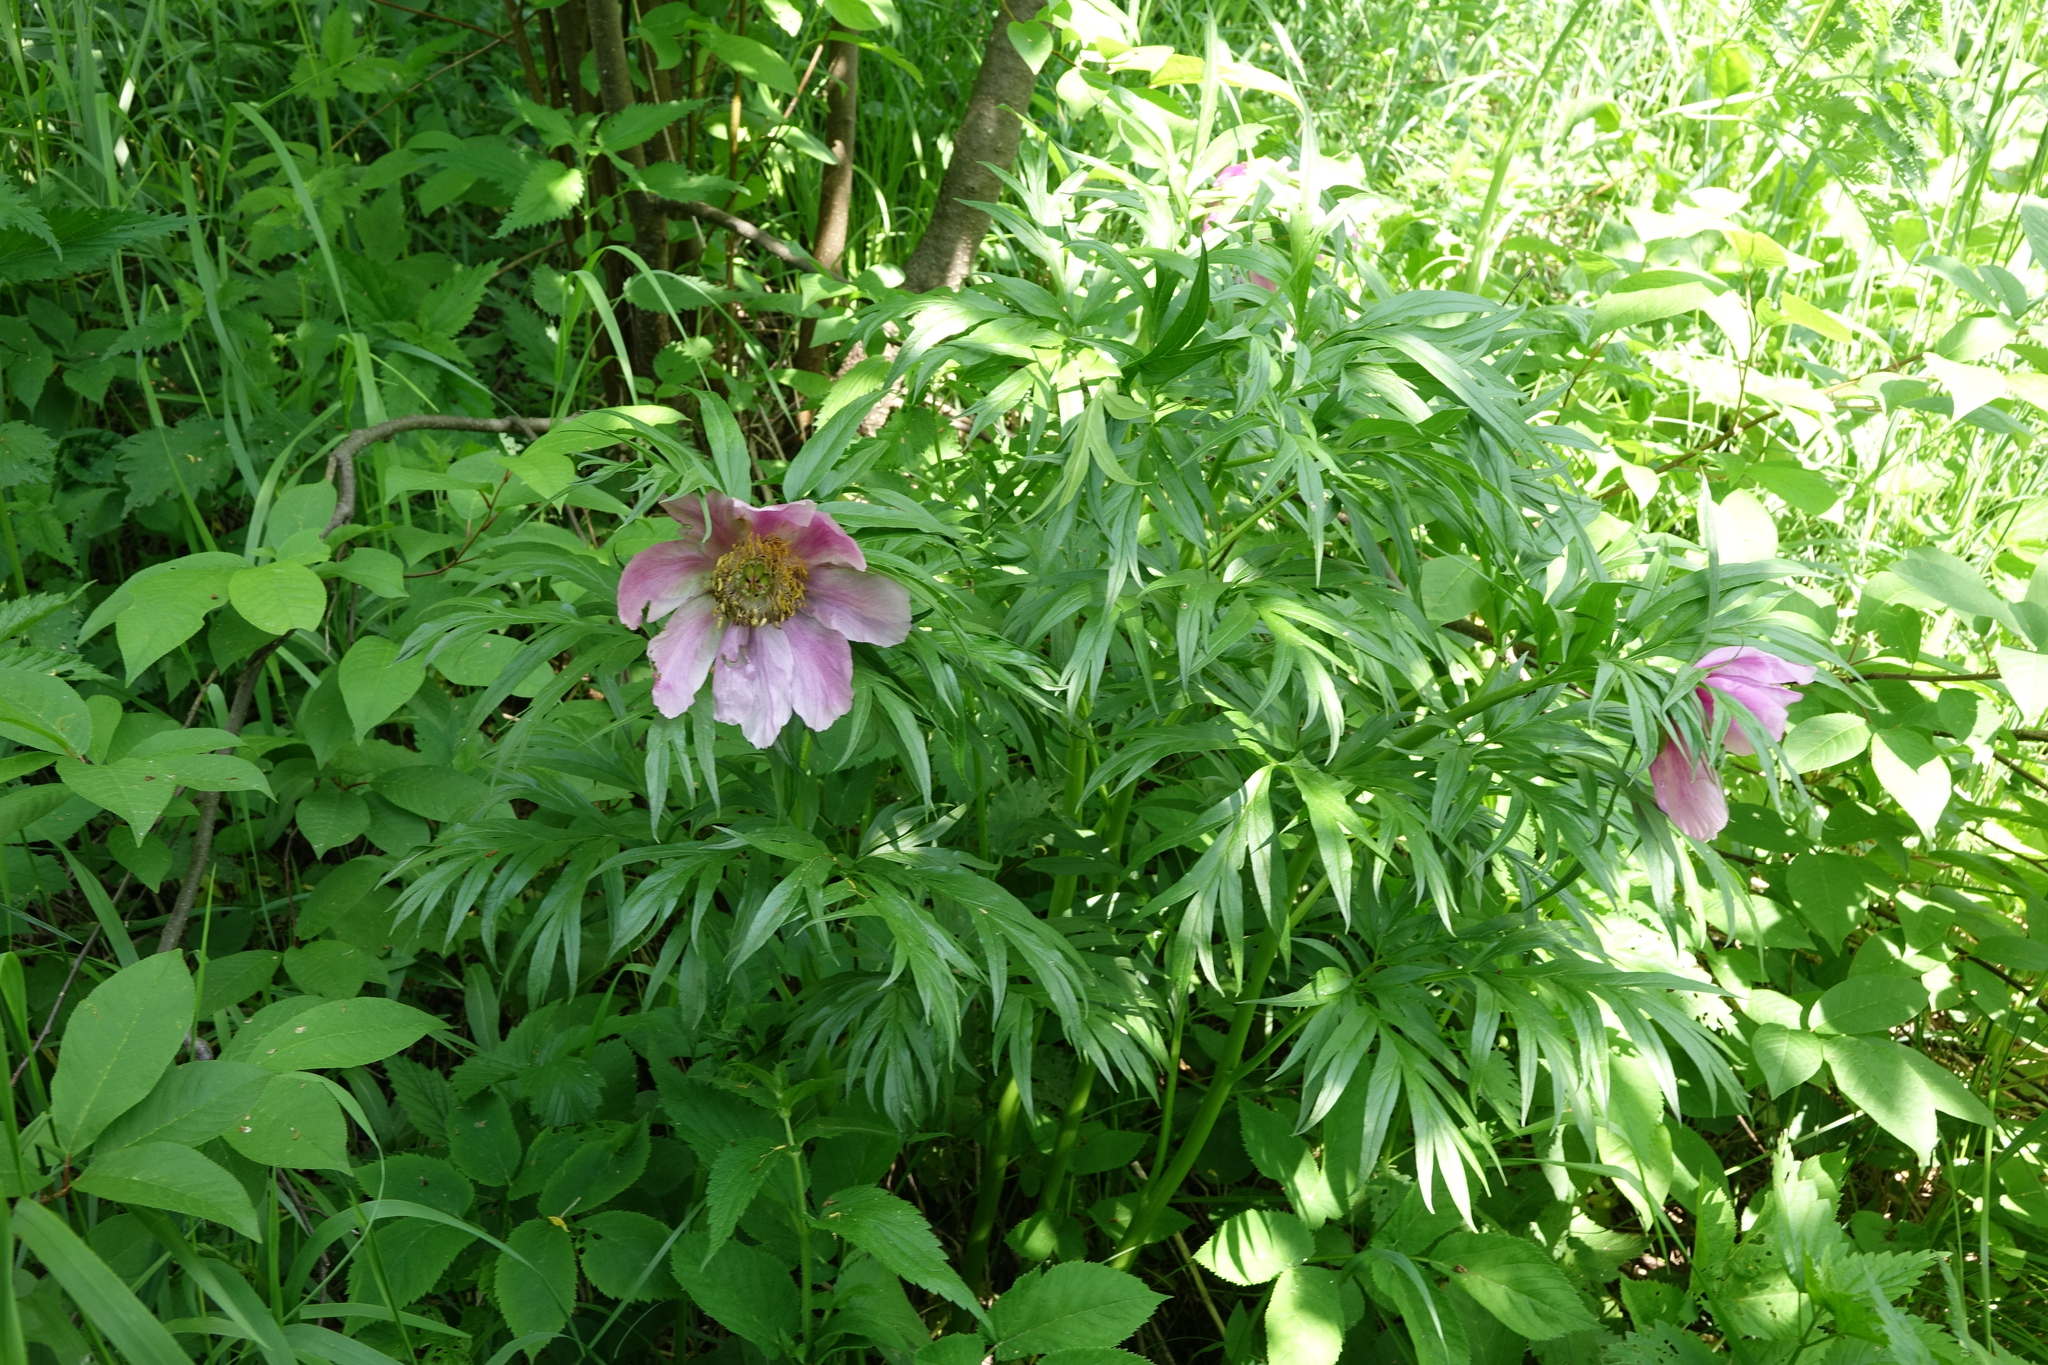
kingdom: Plantae
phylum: Tracheophyta
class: Magnoliopsida
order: Saxifragales
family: Paeoniaceae
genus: Paeonia
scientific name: Paeonia anomala
